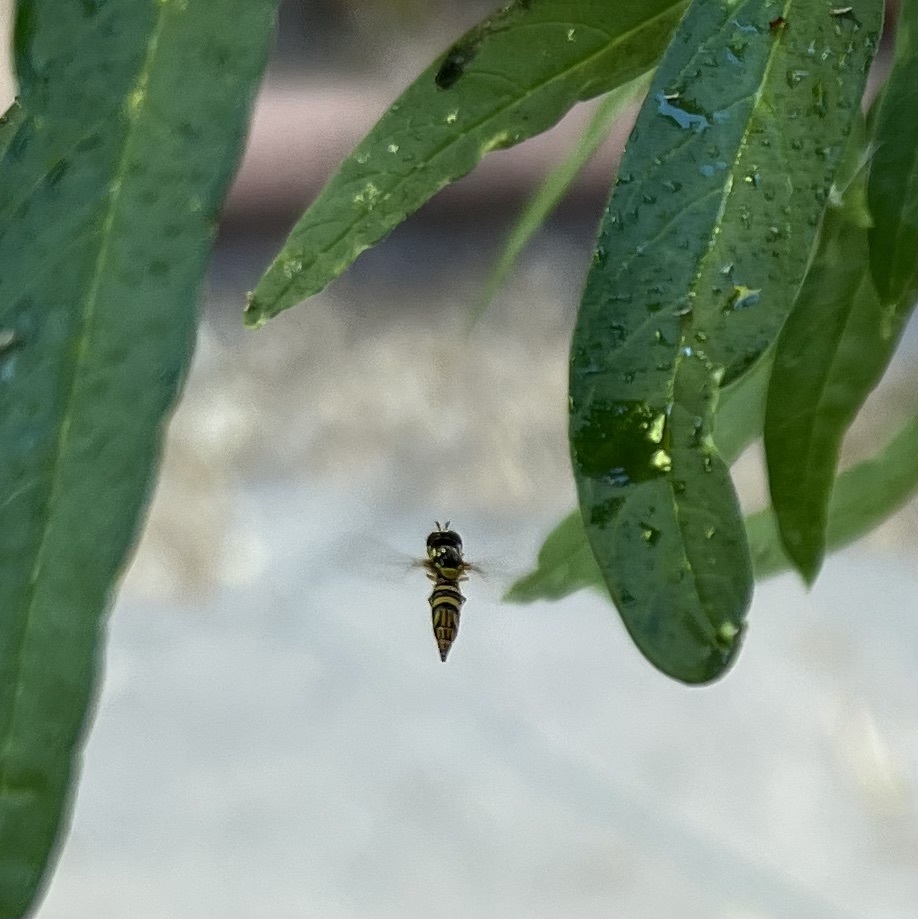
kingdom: Animalia
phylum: Arthropoda
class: Insecta
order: Diptera
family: Syrphidae
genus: Allograpta
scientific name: Allograpta obliqua
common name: Common oblique syrphid
